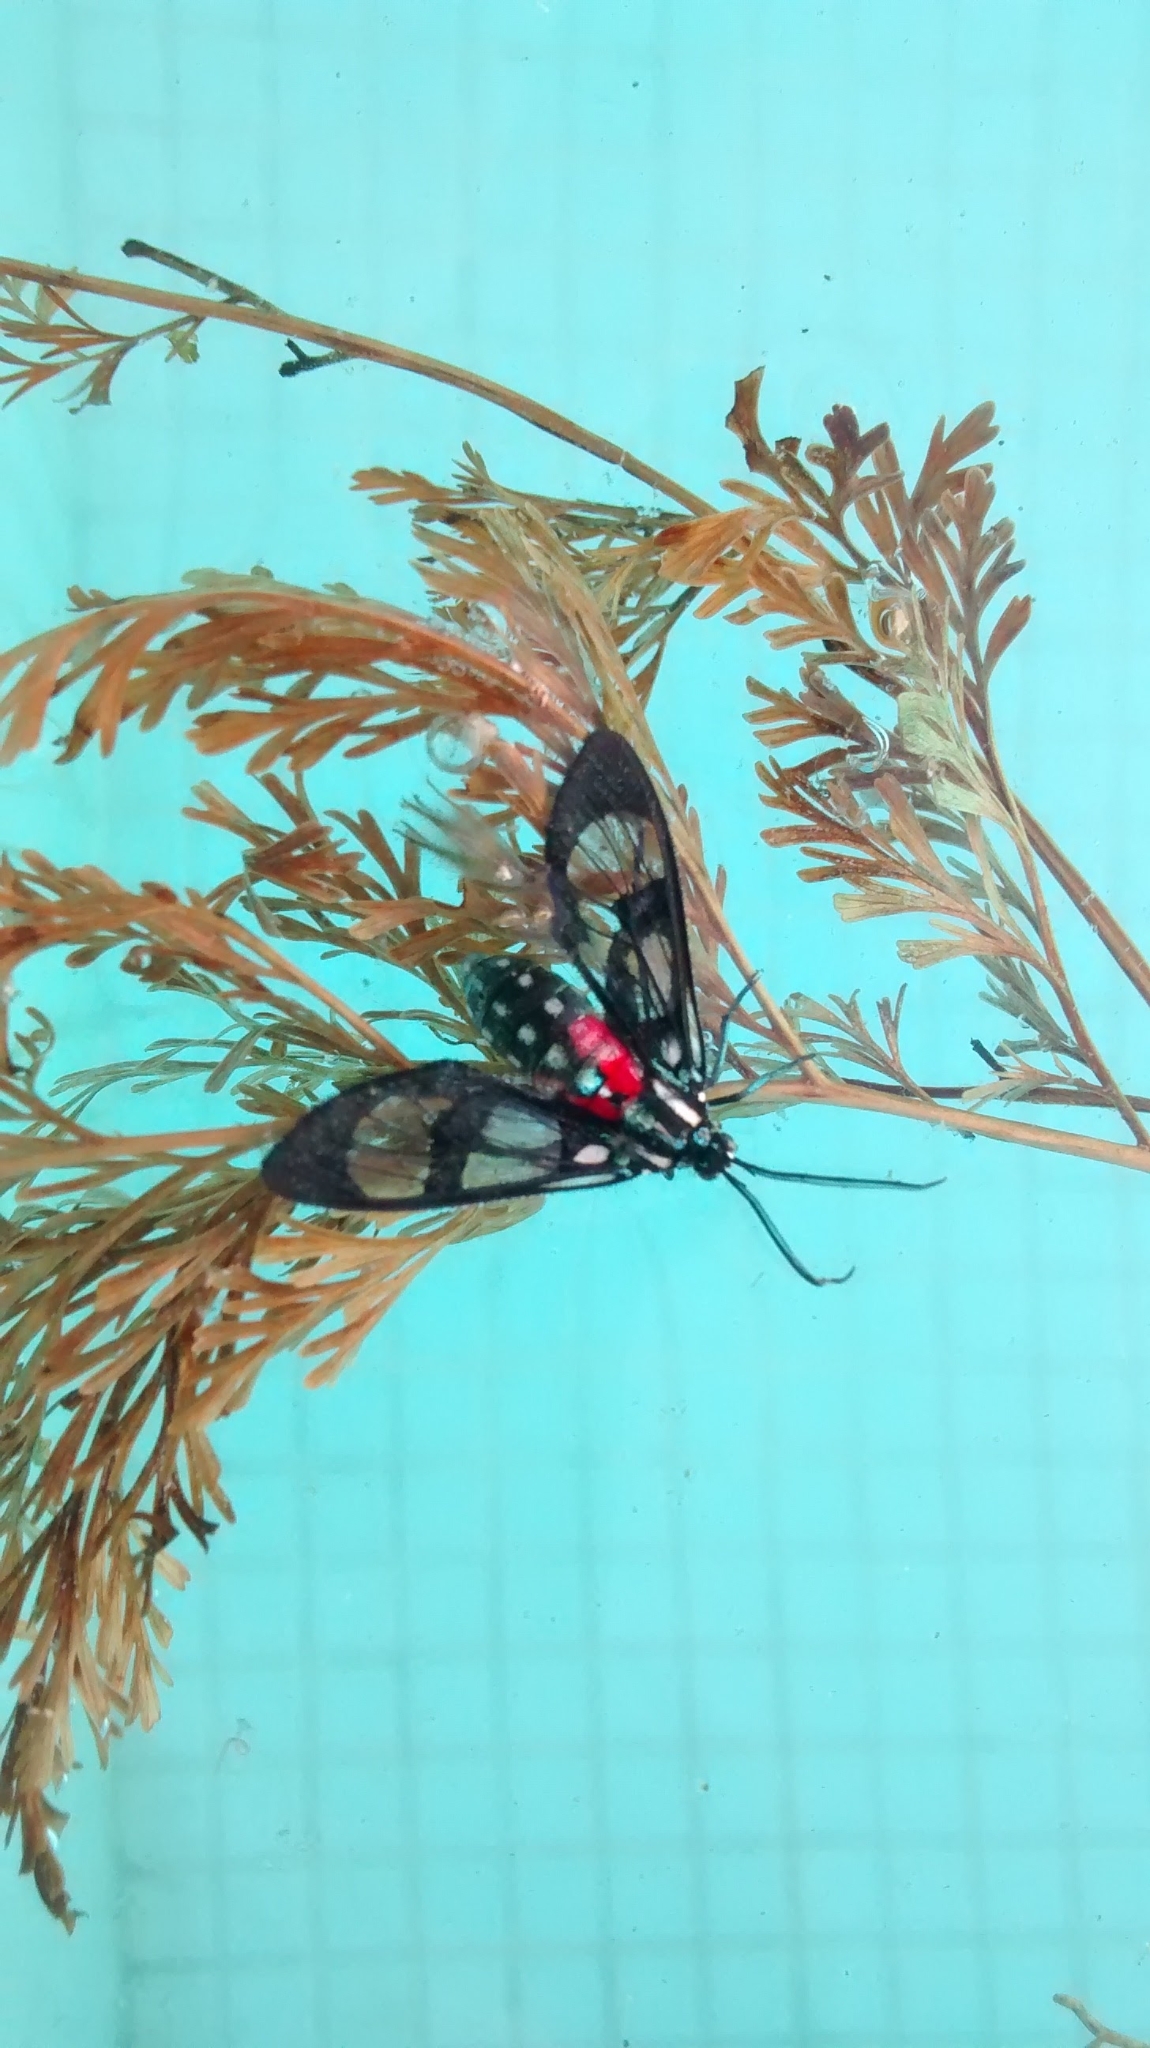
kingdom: Animalia
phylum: Arthropoda
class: Insecta
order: Lepidoptera
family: Erebidae
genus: Poecilosoma
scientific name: Poecilosoma eone
